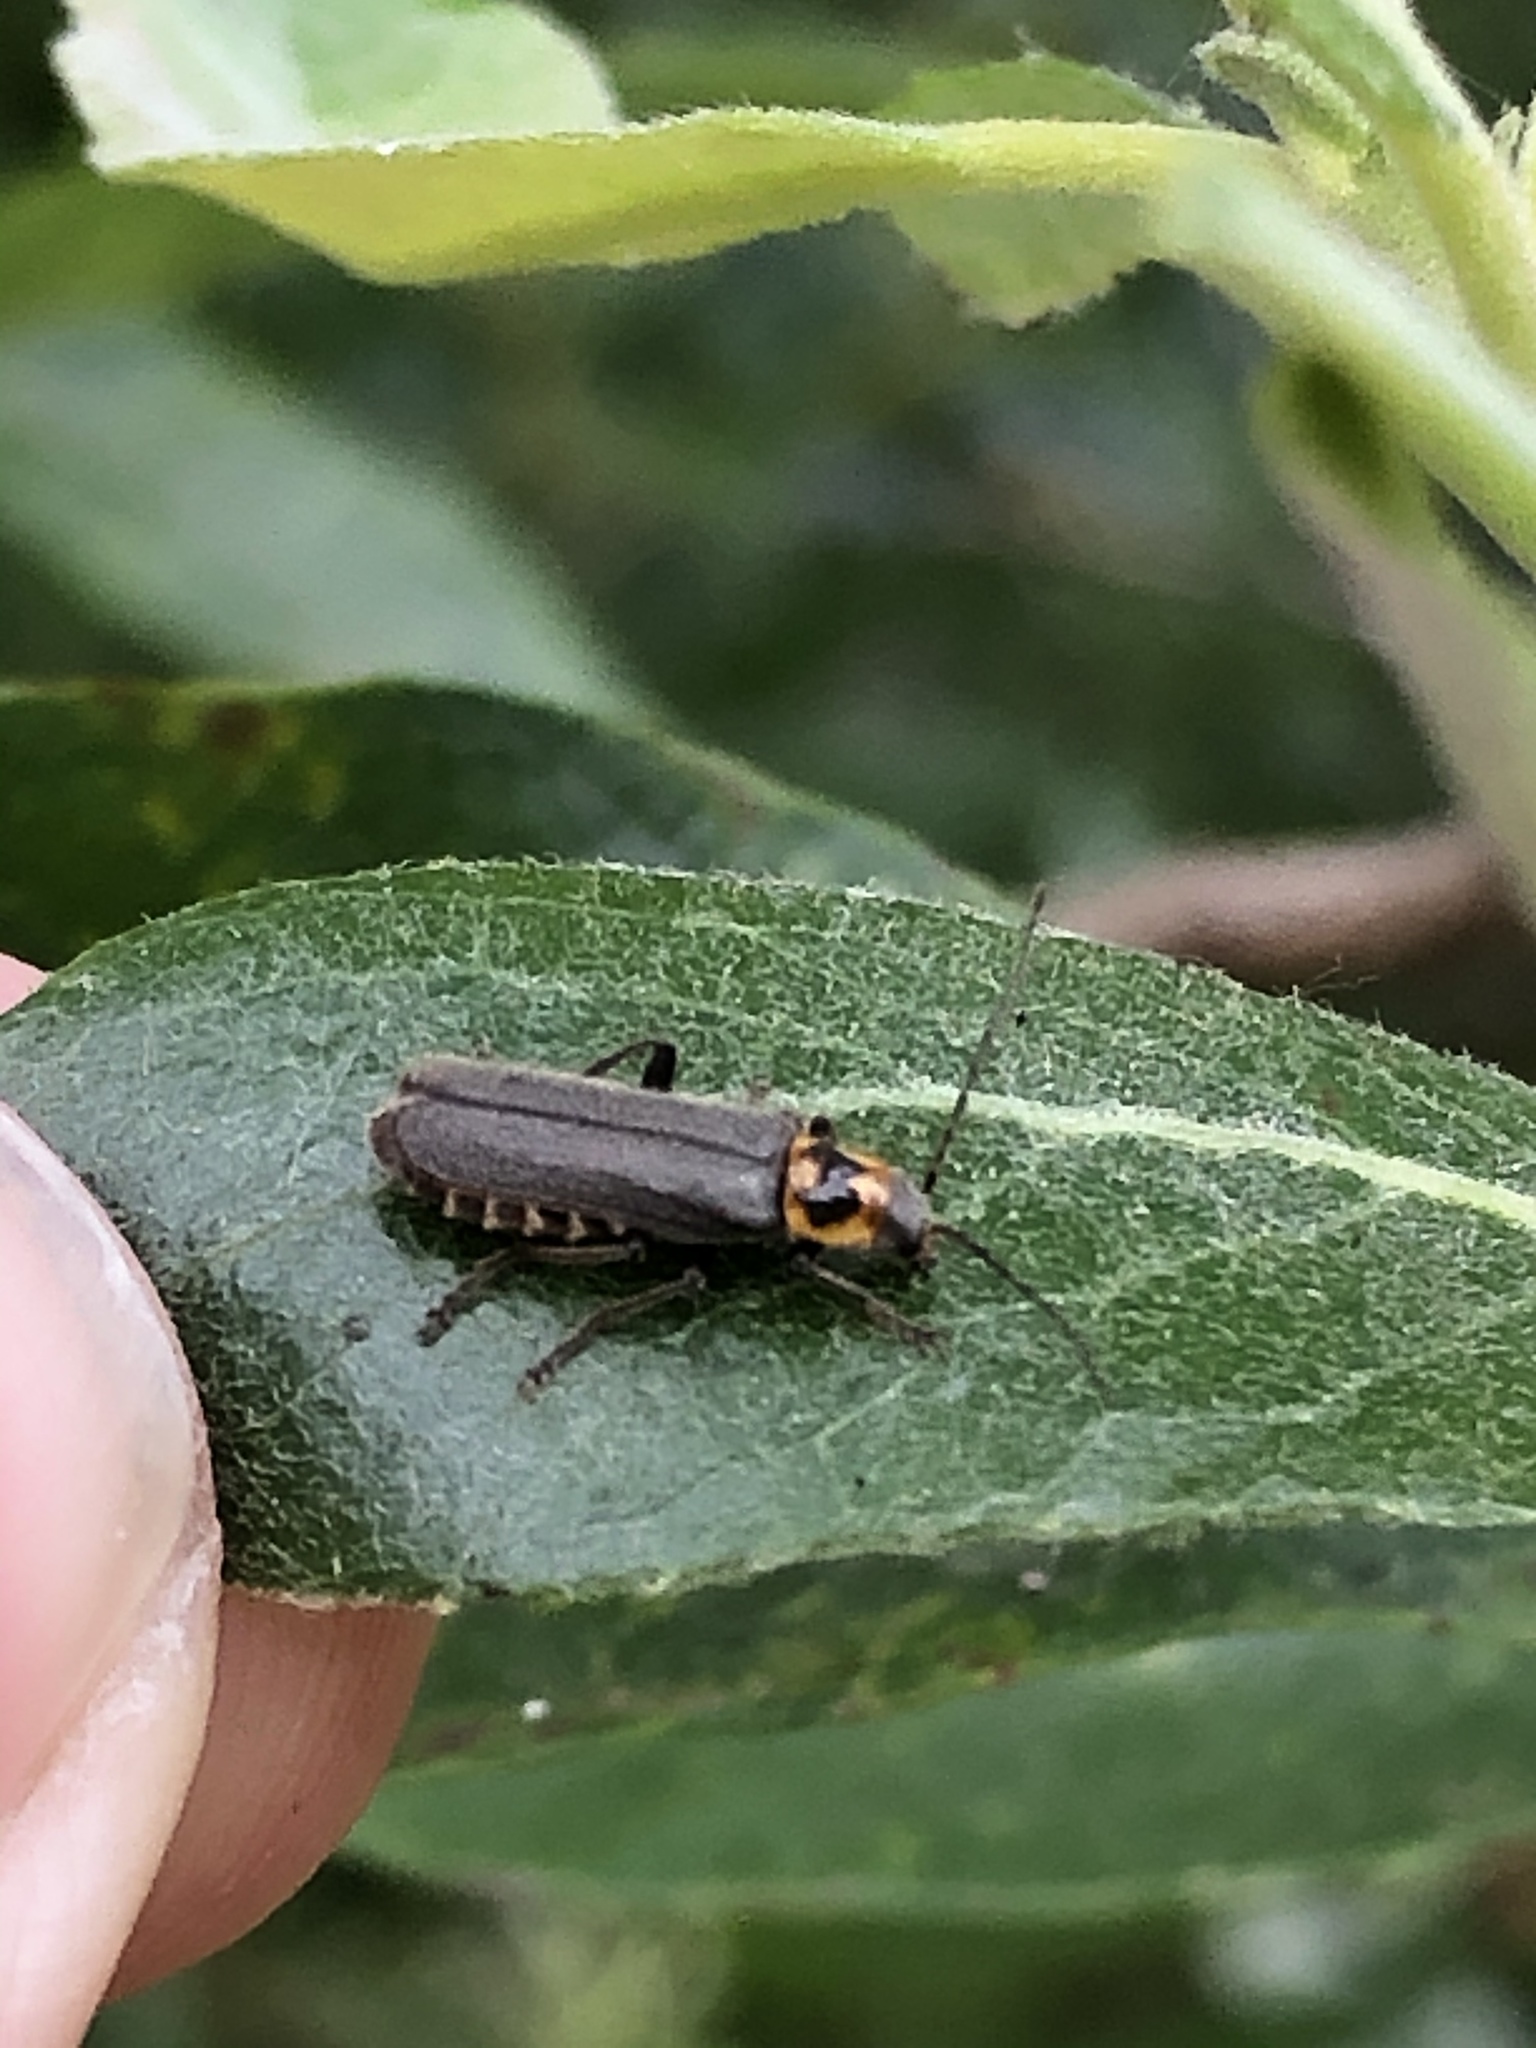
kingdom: Animalia
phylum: Arthropoda
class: Insecta
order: Coleoptera
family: Cantharidae
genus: Cyrtomoptera
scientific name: Cyrtomoptera divisa
